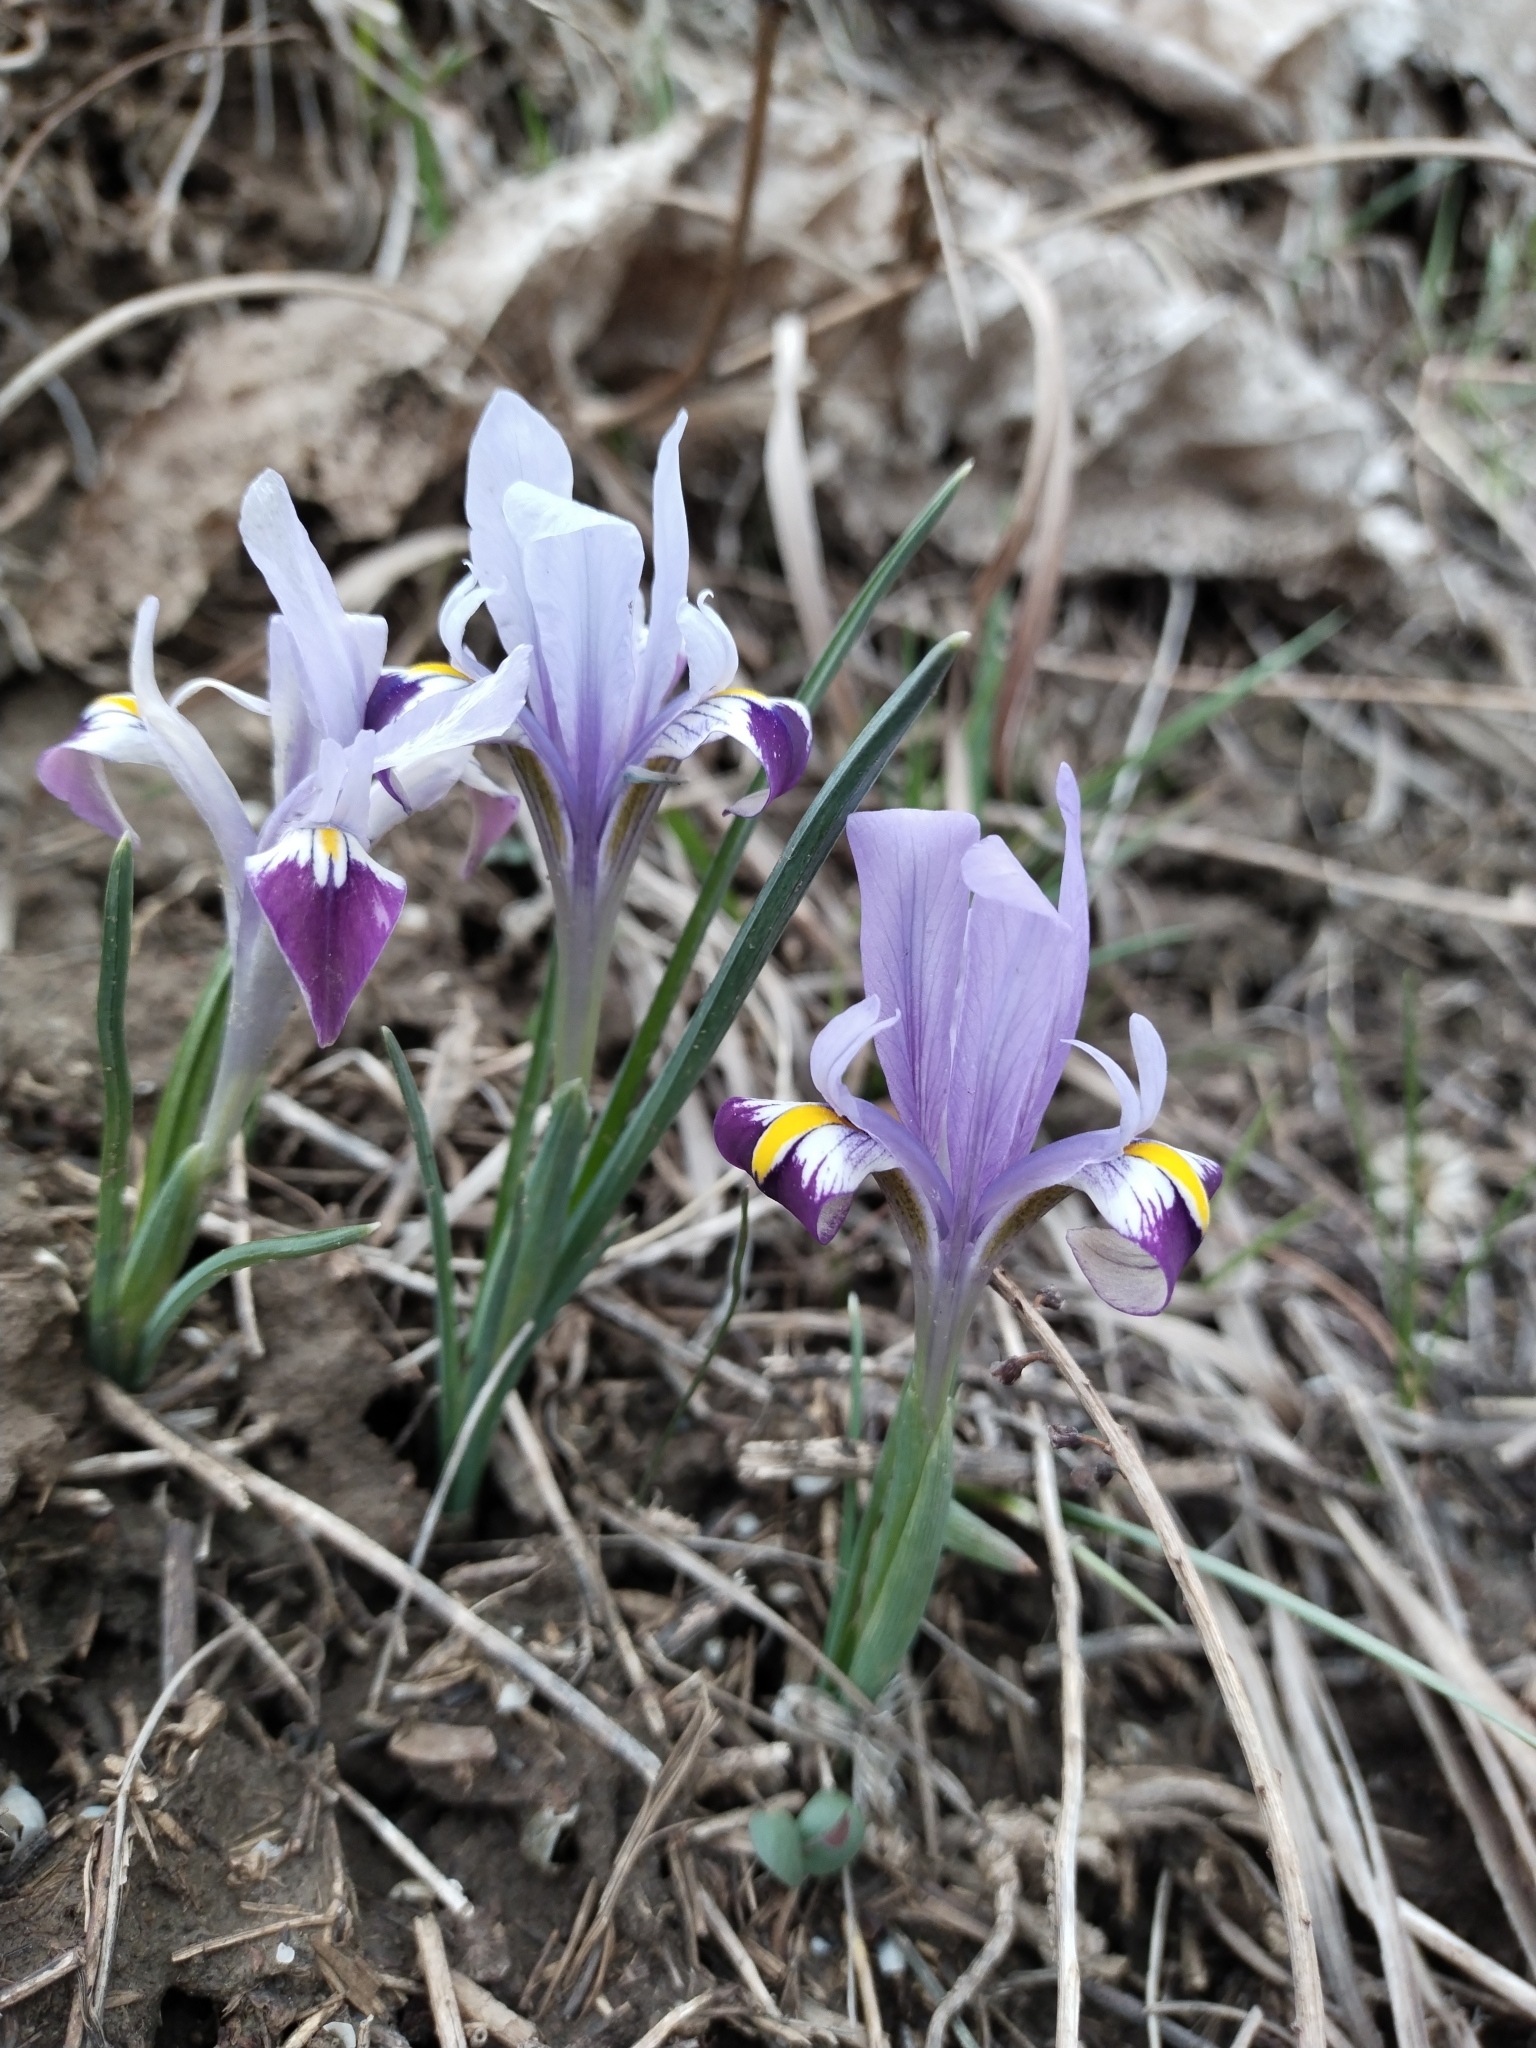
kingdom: Plantae
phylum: Tracheophyta
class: Liliopsida
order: Asparagales
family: Iridaceae
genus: Iris
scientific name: Iris kolpakowskiana
